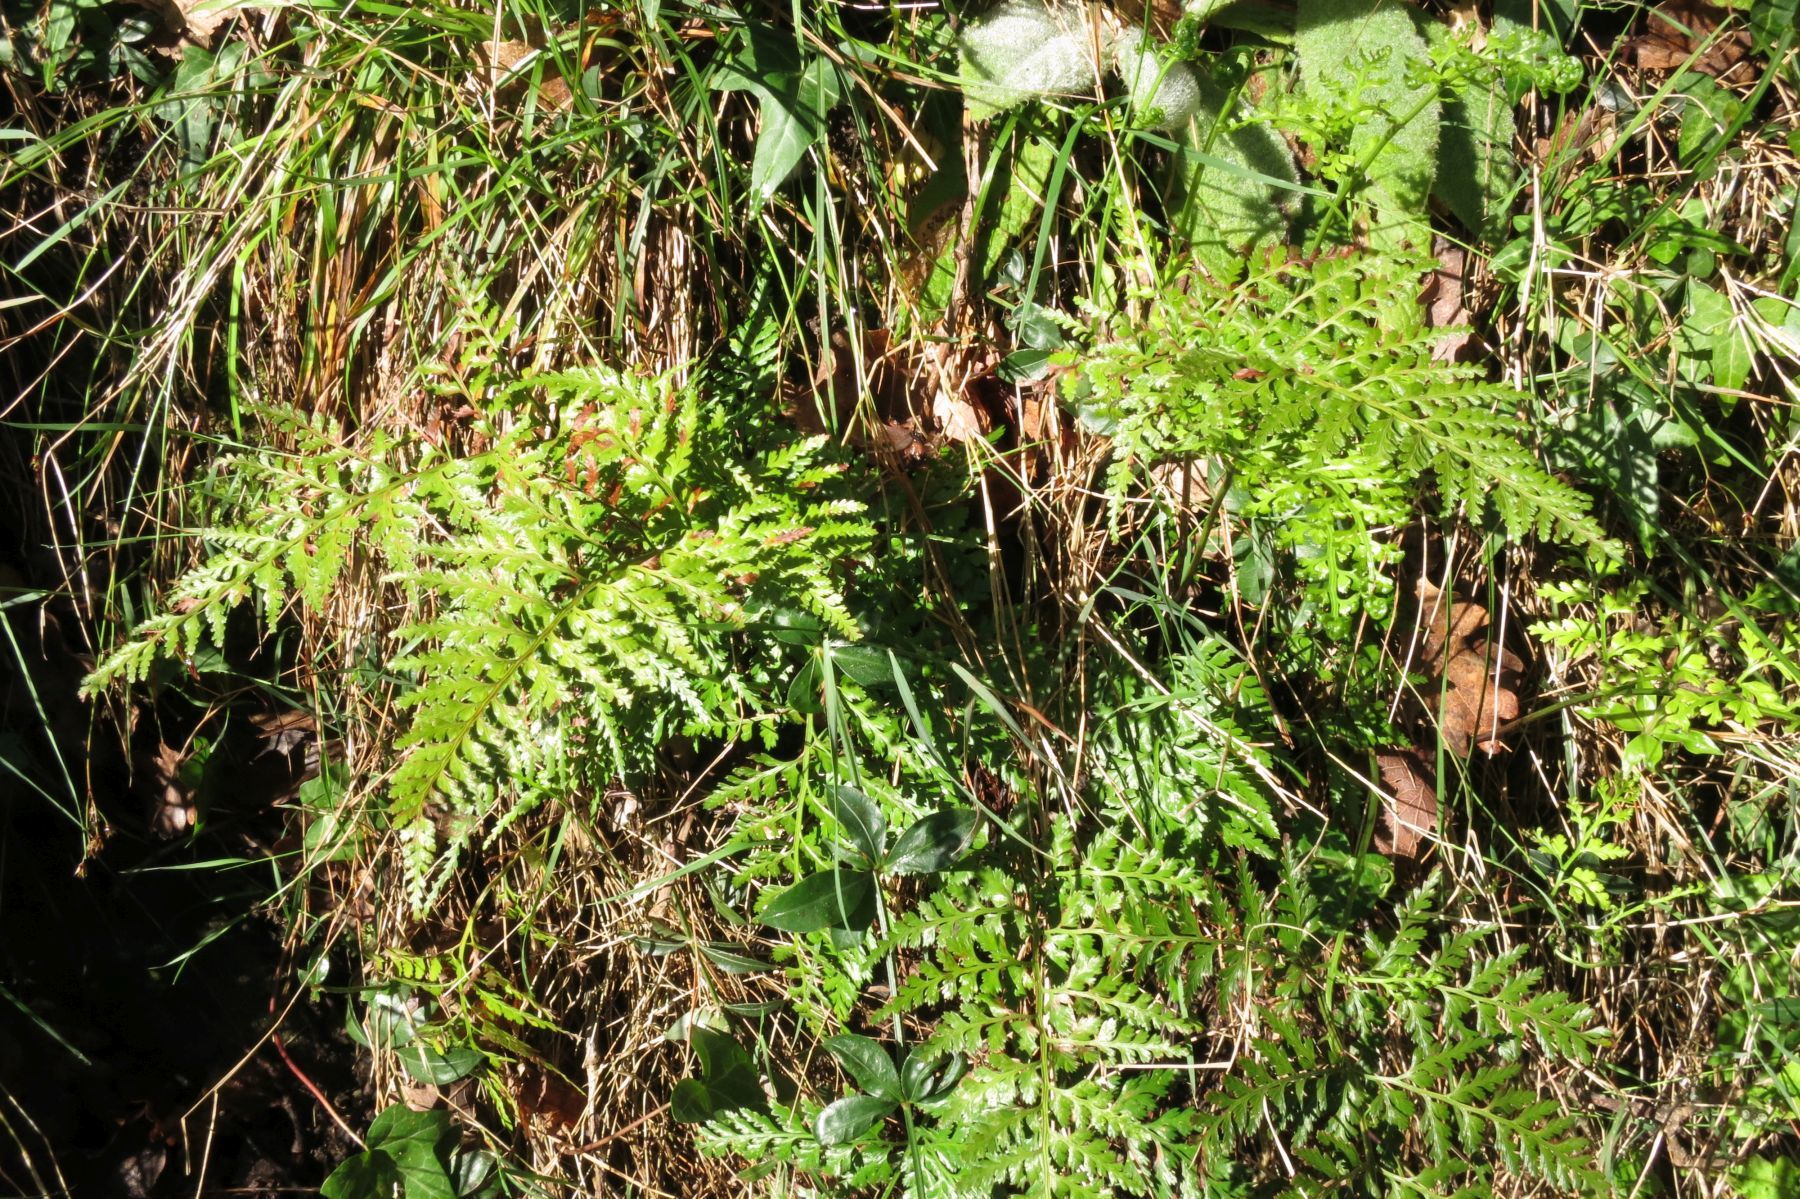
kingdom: Plantae
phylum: Tracheophyta
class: Polypodiopsida
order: Polypodiales
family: Aspleniaceae
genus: Asplenium
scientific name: Asplenium onopteris
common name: Irish spleenwort
